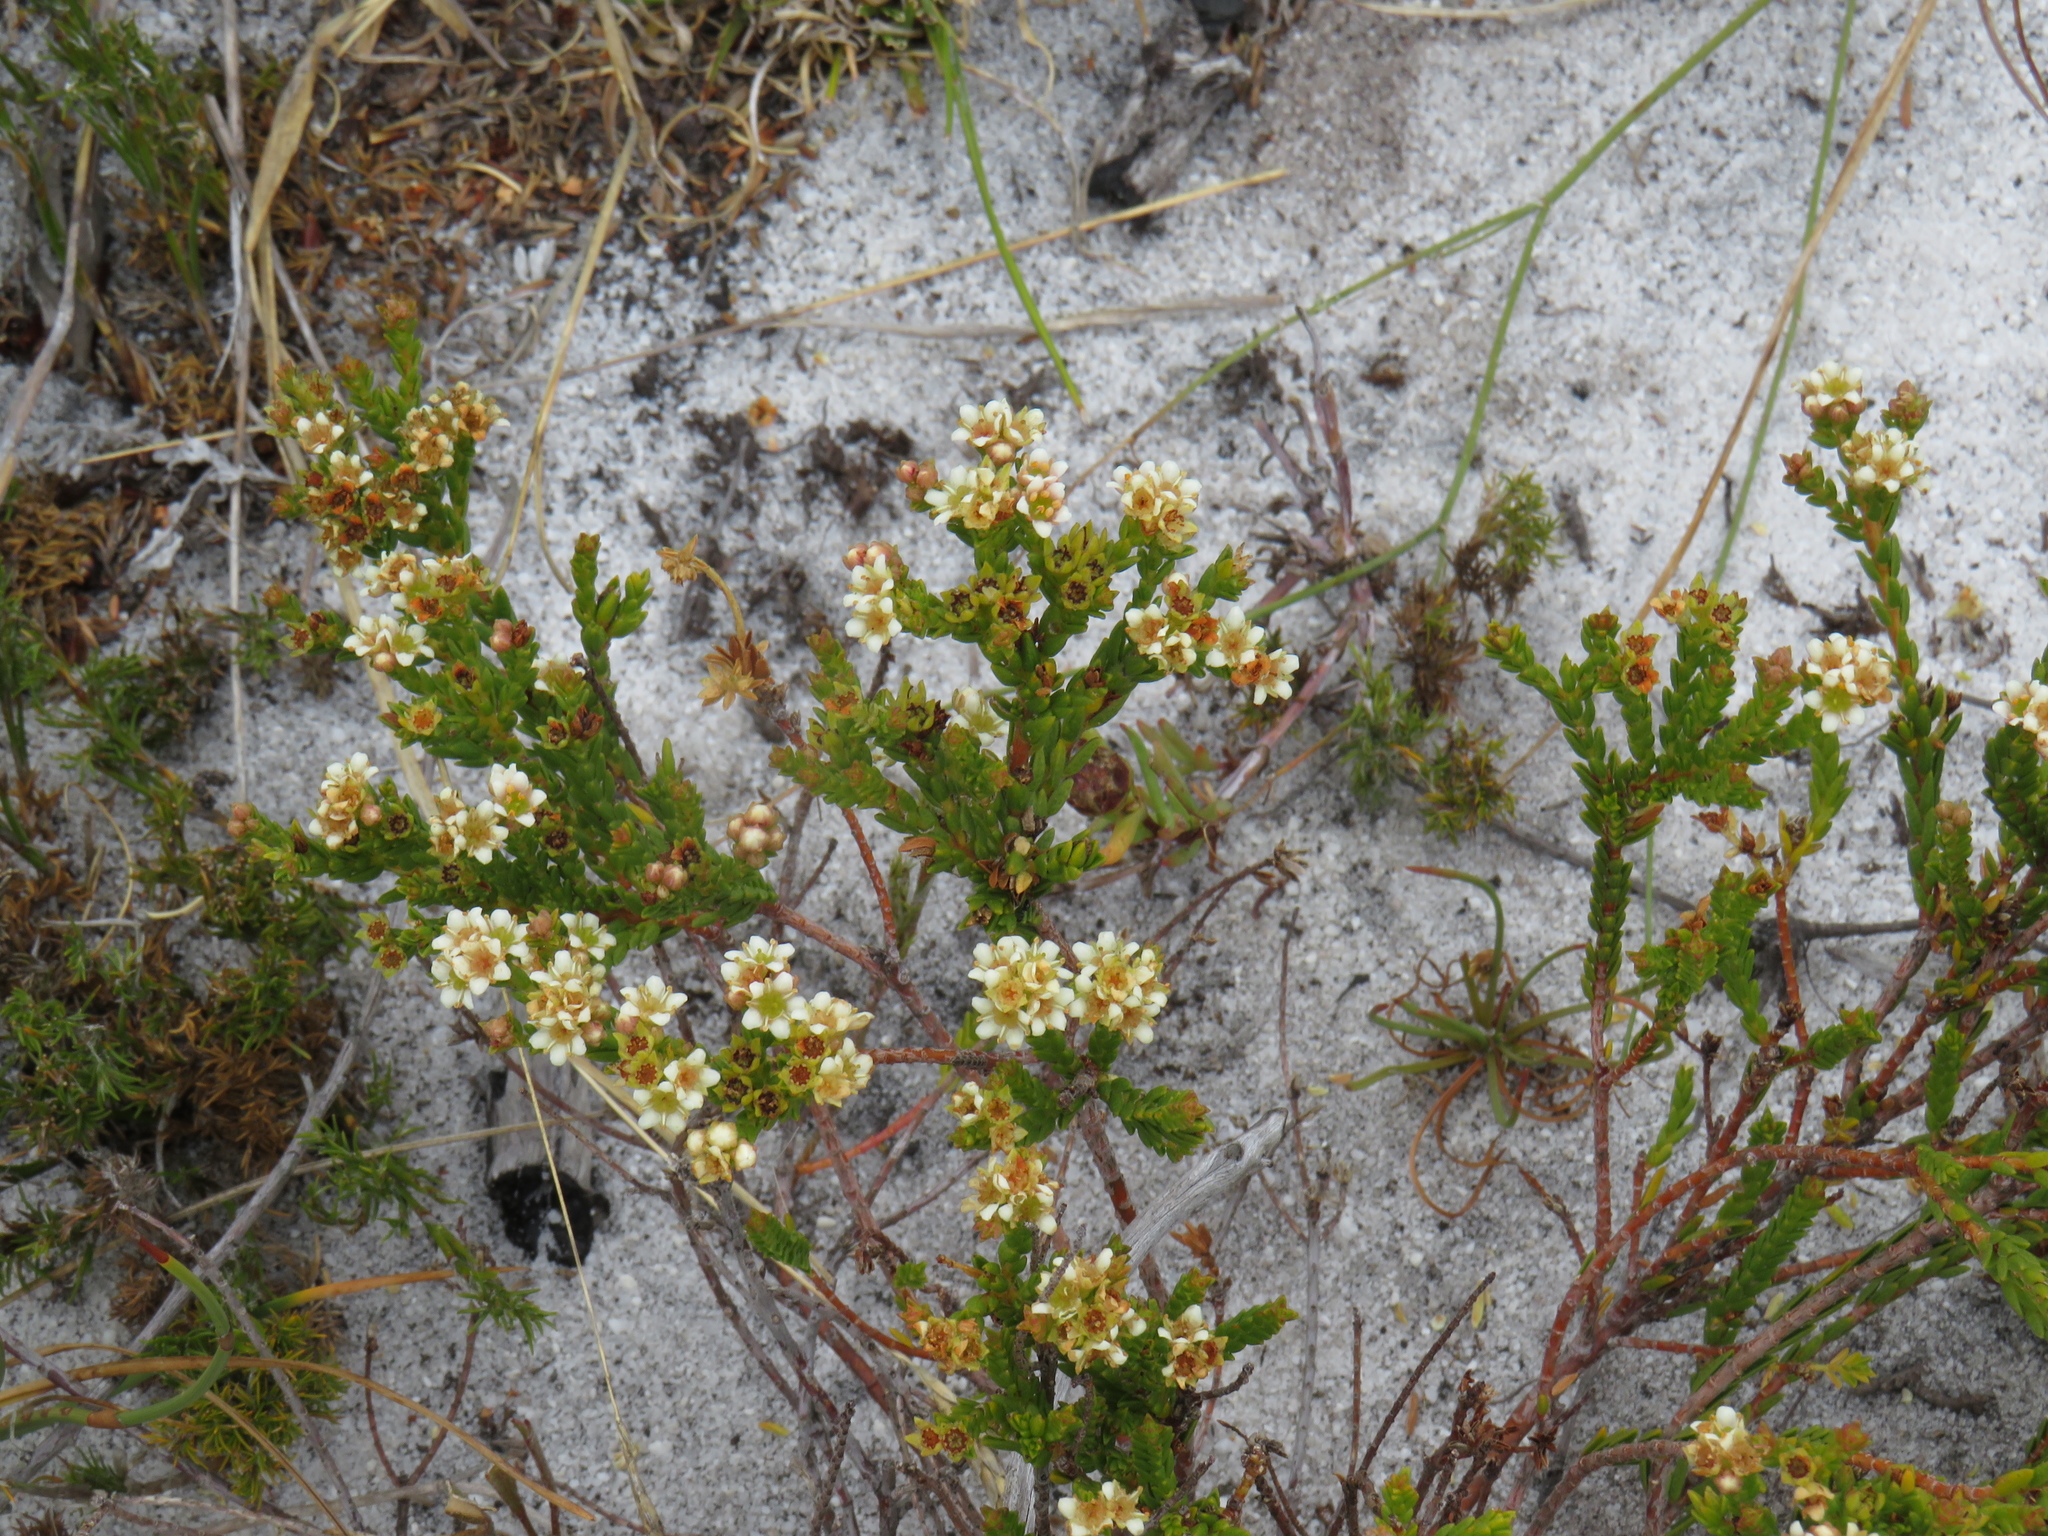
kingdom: Plantae
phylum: Tracheophyta
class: Magnoliopsida
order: Sapindales
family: Rutaceae
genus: Diosma
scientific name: Diosma oppositifolia
